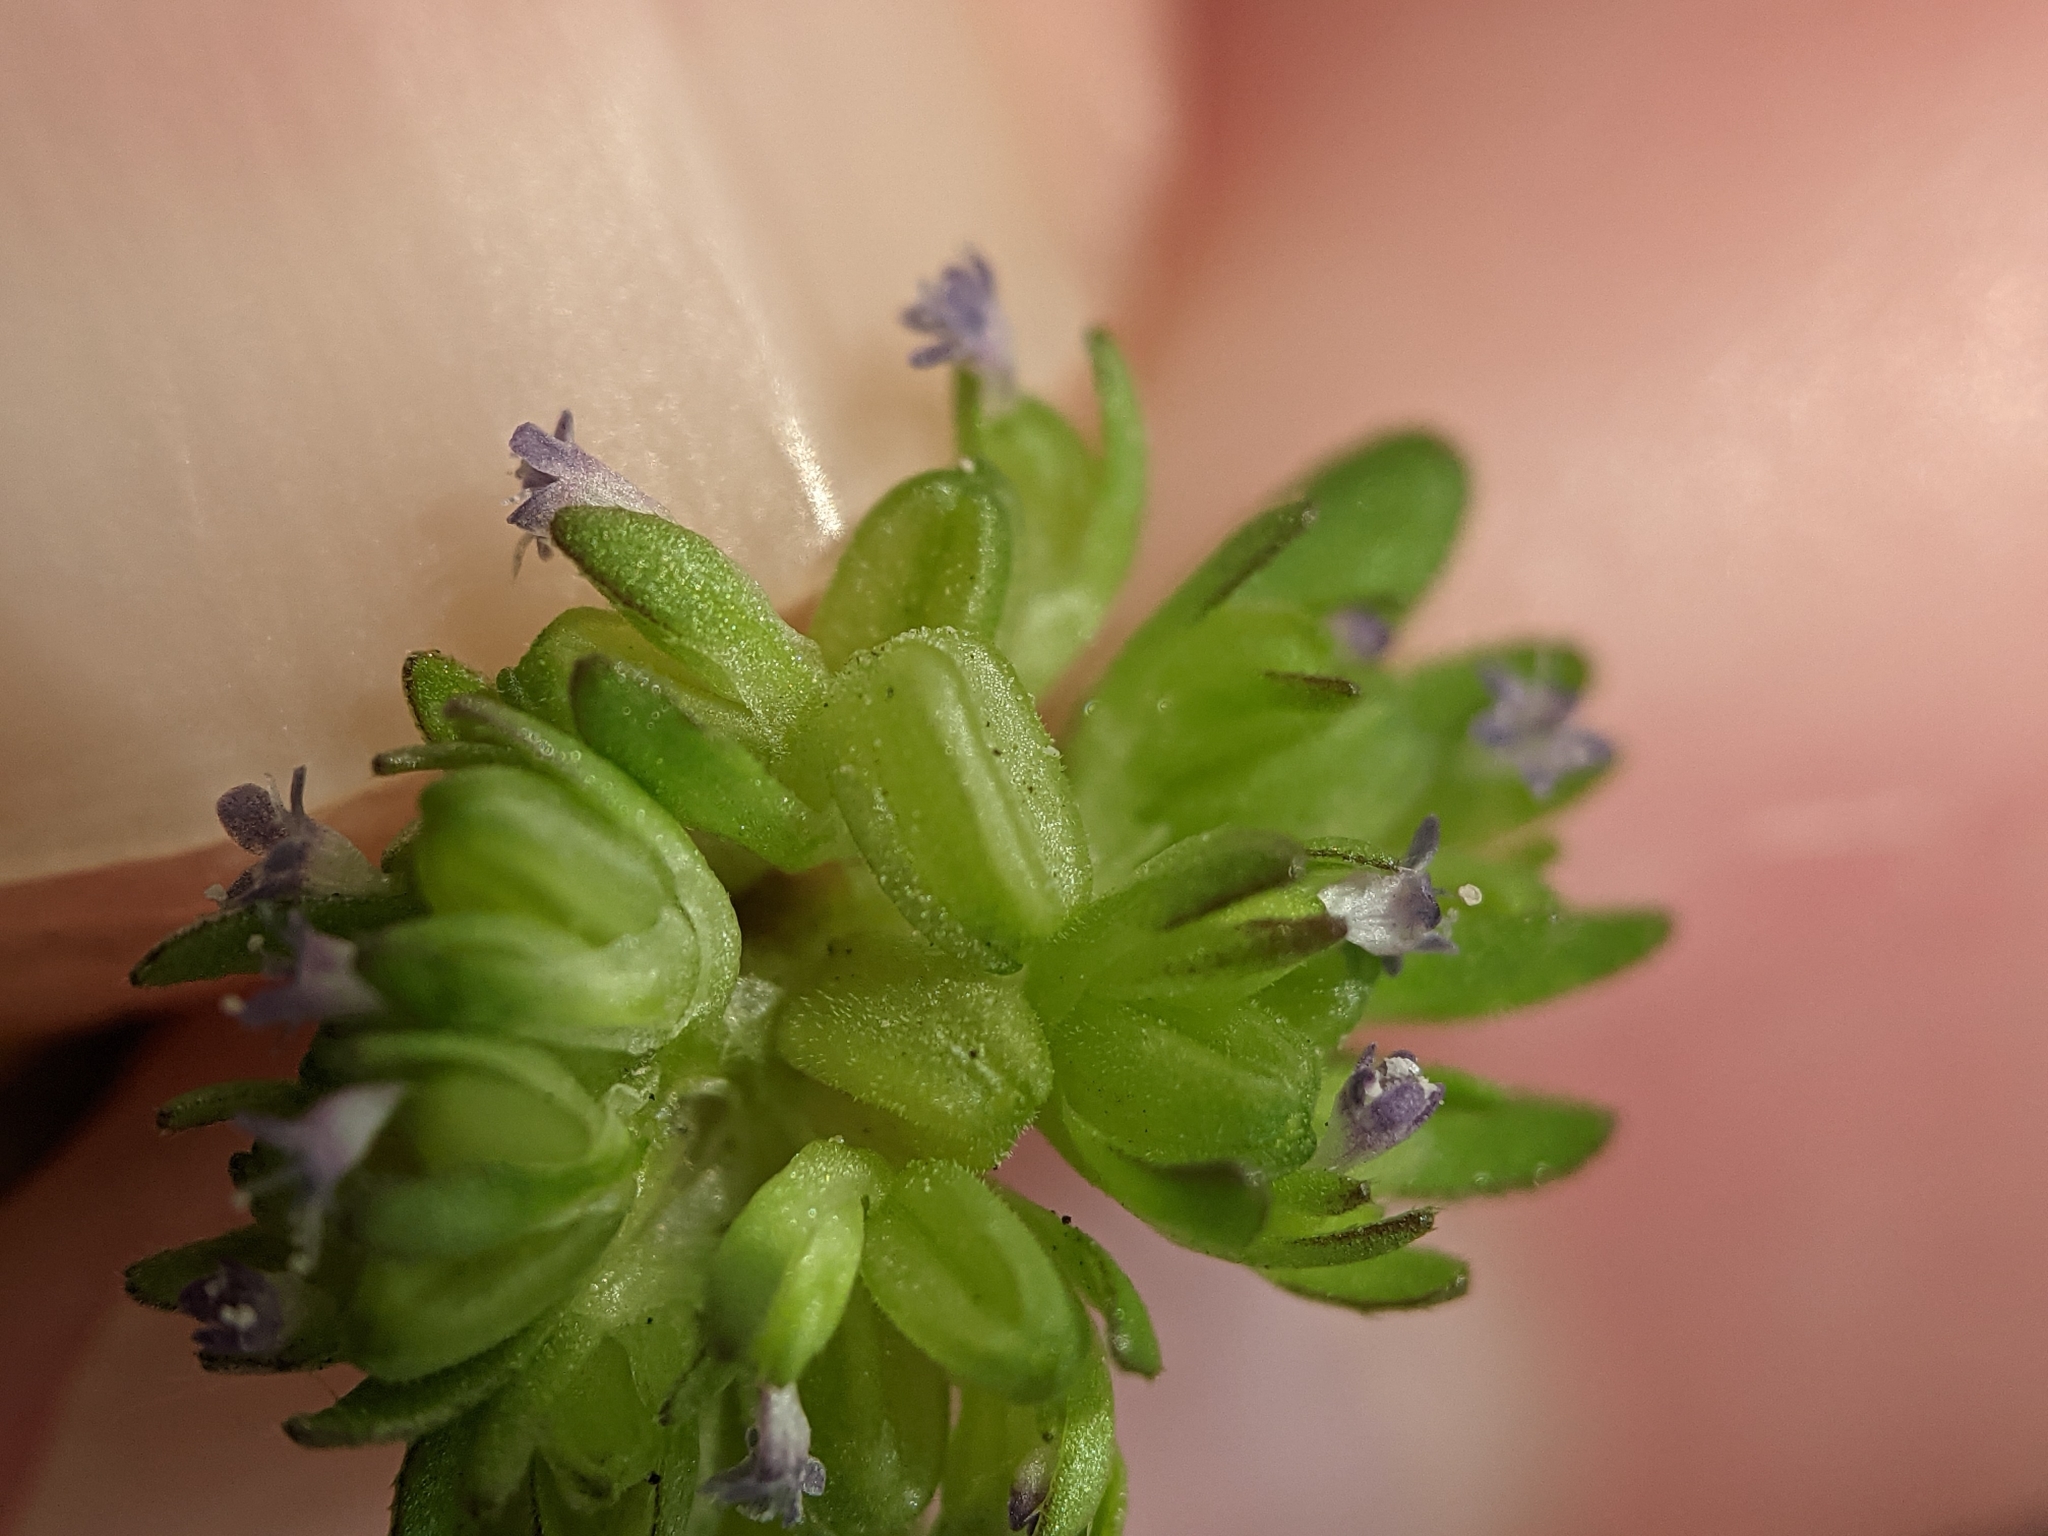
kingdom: Plantae
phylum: Tracheophyta
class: Magnoliopsida
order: Dipsacales
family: Caprifoliaceae
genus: Valerianella
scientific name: Valerianella carinata
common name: Keeled-fruited cornsalad
